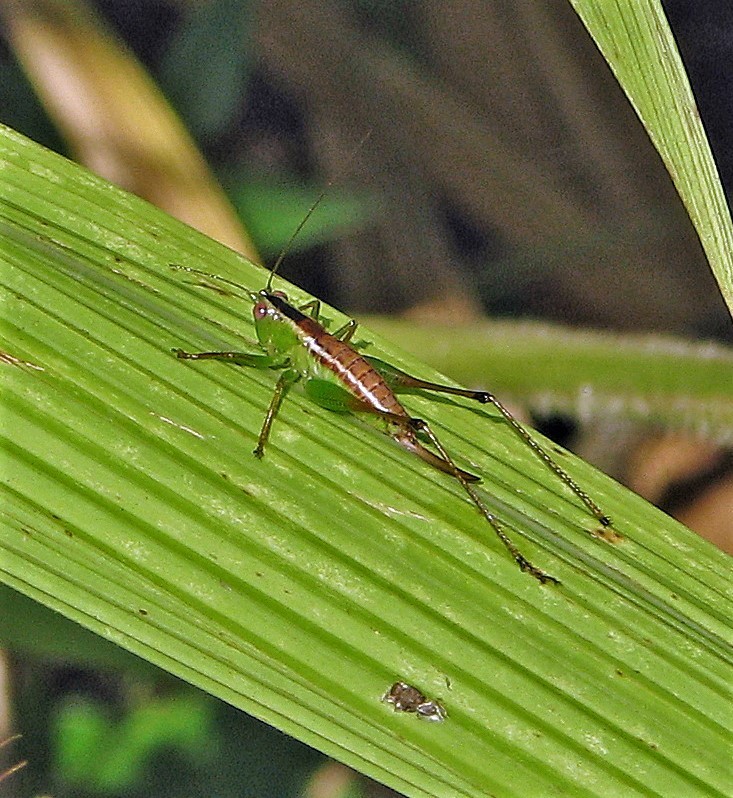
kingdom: Animalia
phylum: Arthropoda
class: Insecta
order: Orthoptera
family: Tettigoniidae
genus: Xiphelimum
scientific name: Xiphelimum amplipennis
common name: Clear-wing meadow katydid
